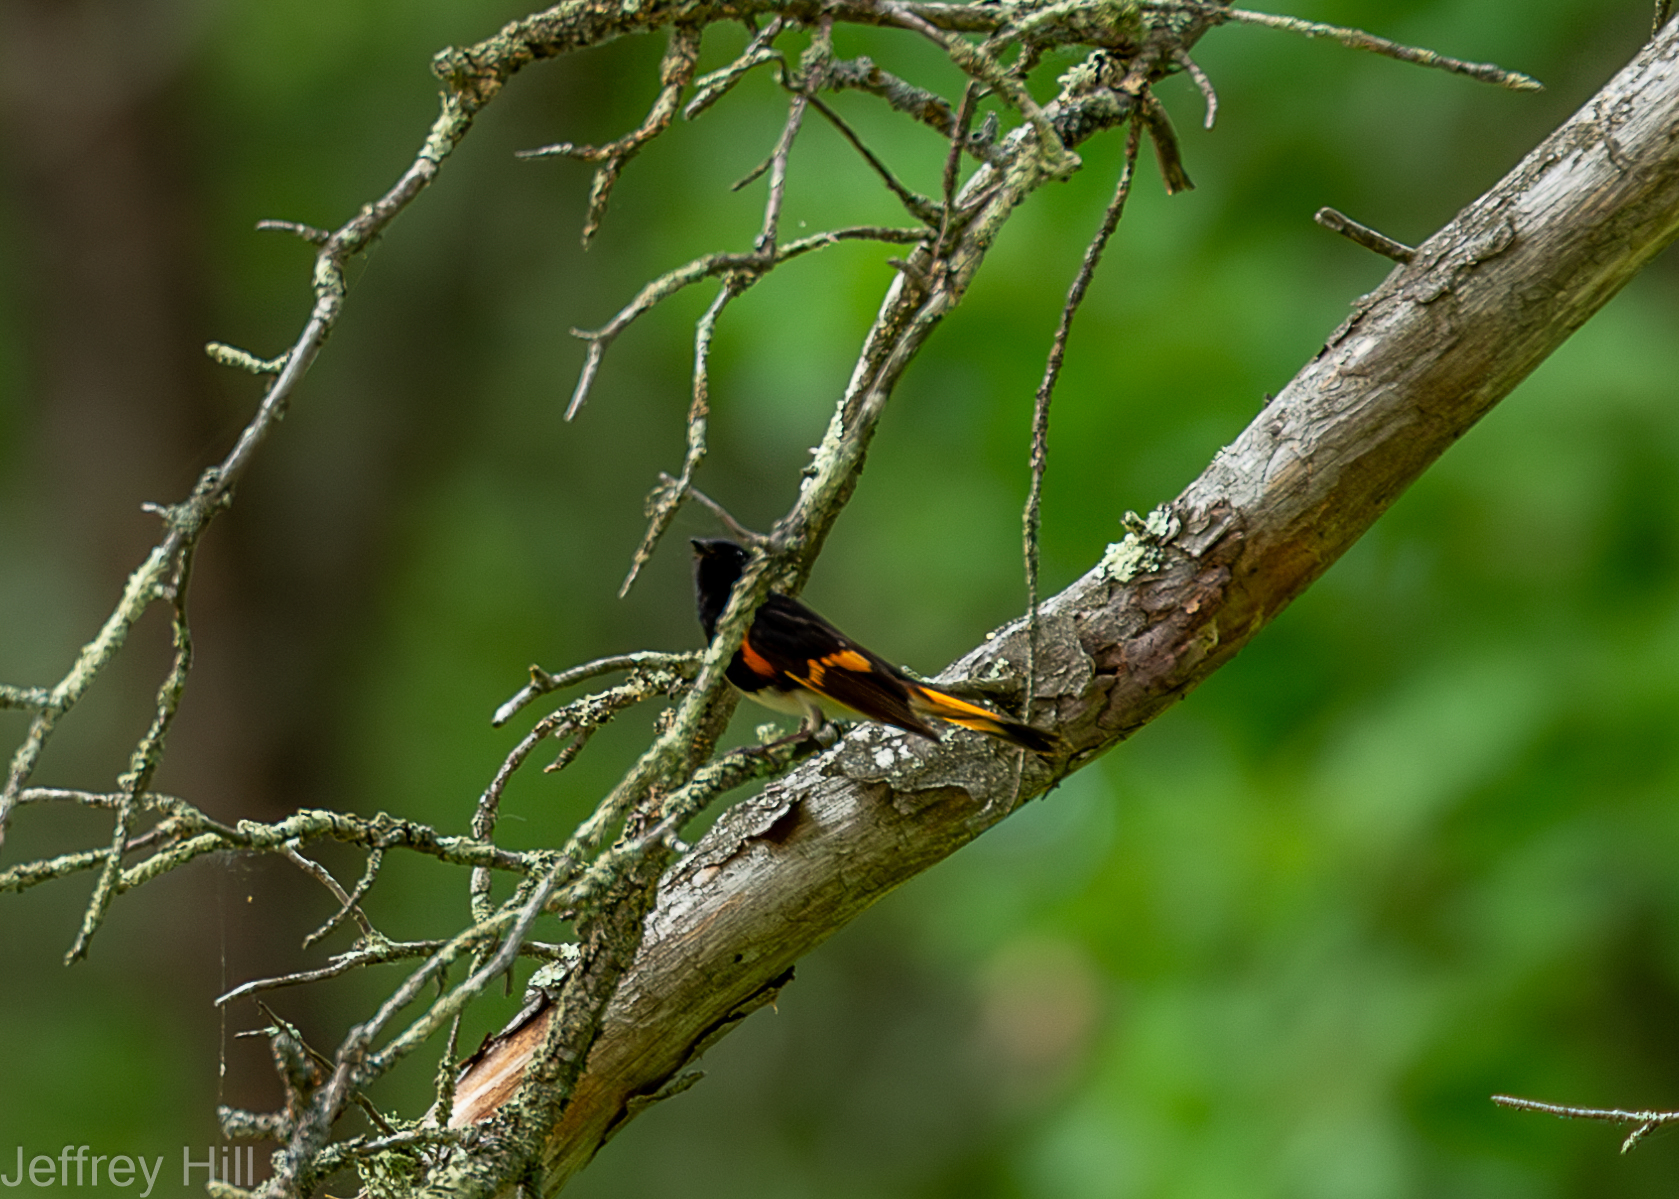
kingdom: Animalia
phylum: Chordata
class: Aves
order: Passeriformes
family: Parulidae
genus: Setophaga
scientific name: Setophaga ruticilla
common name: American redstart
